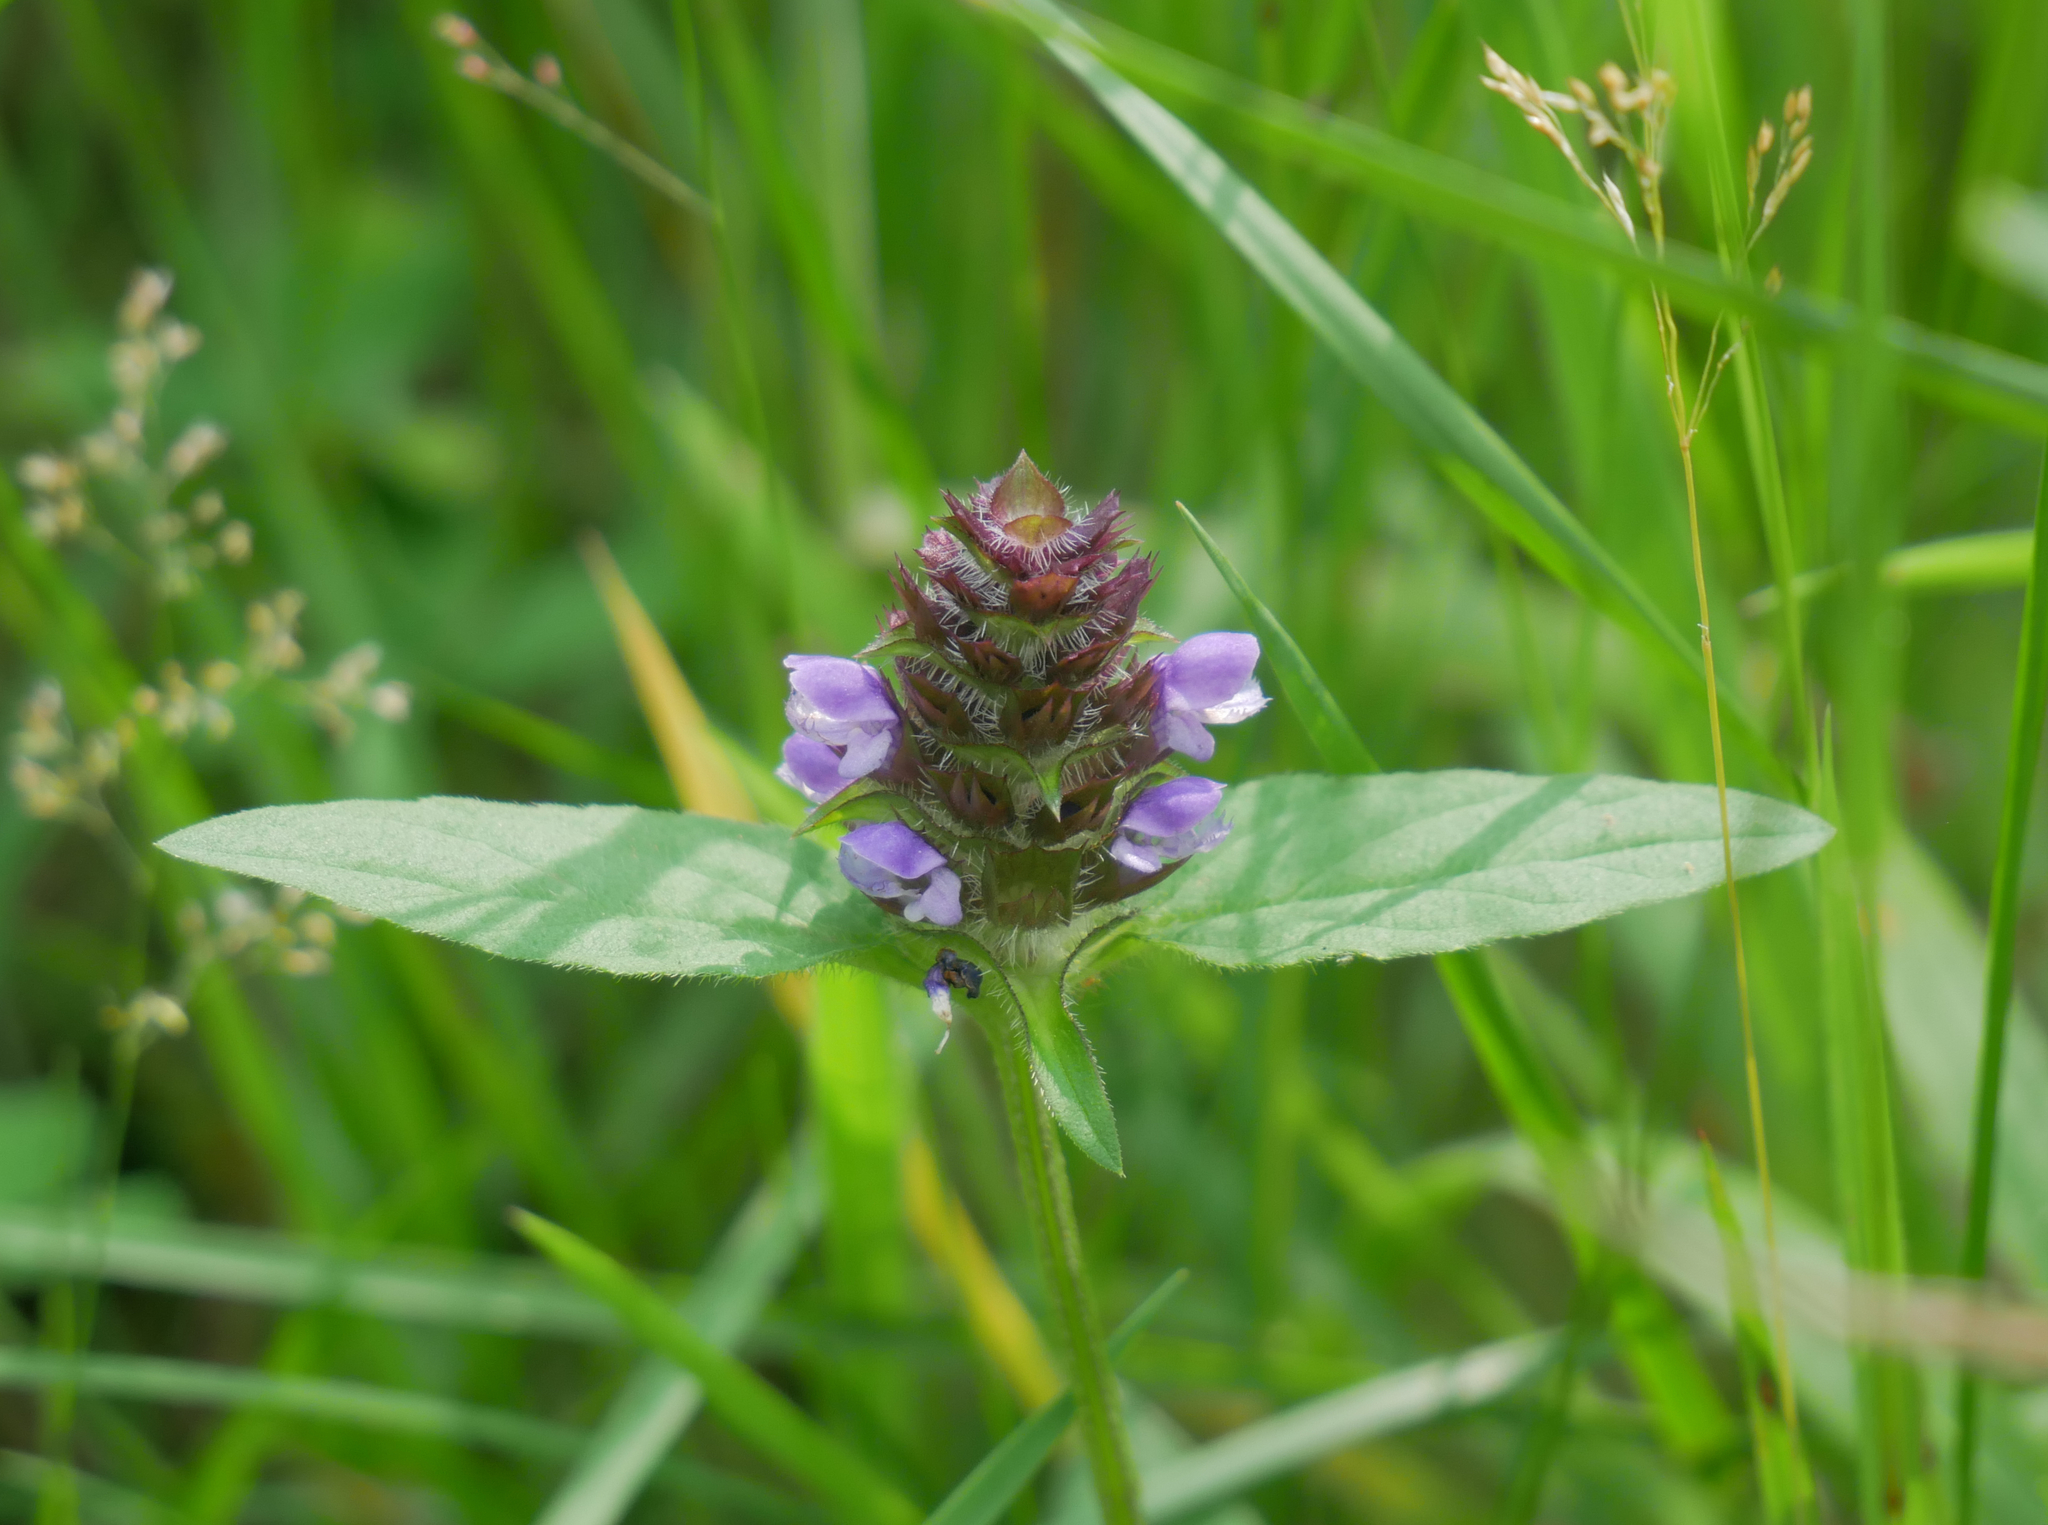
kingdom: Plantae
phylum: Tracheophyta
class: Magnoliopsida
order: Lamiales
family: Lamiaceae
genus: Prunella
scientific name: Prunella vulgaris
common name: Heal-all
